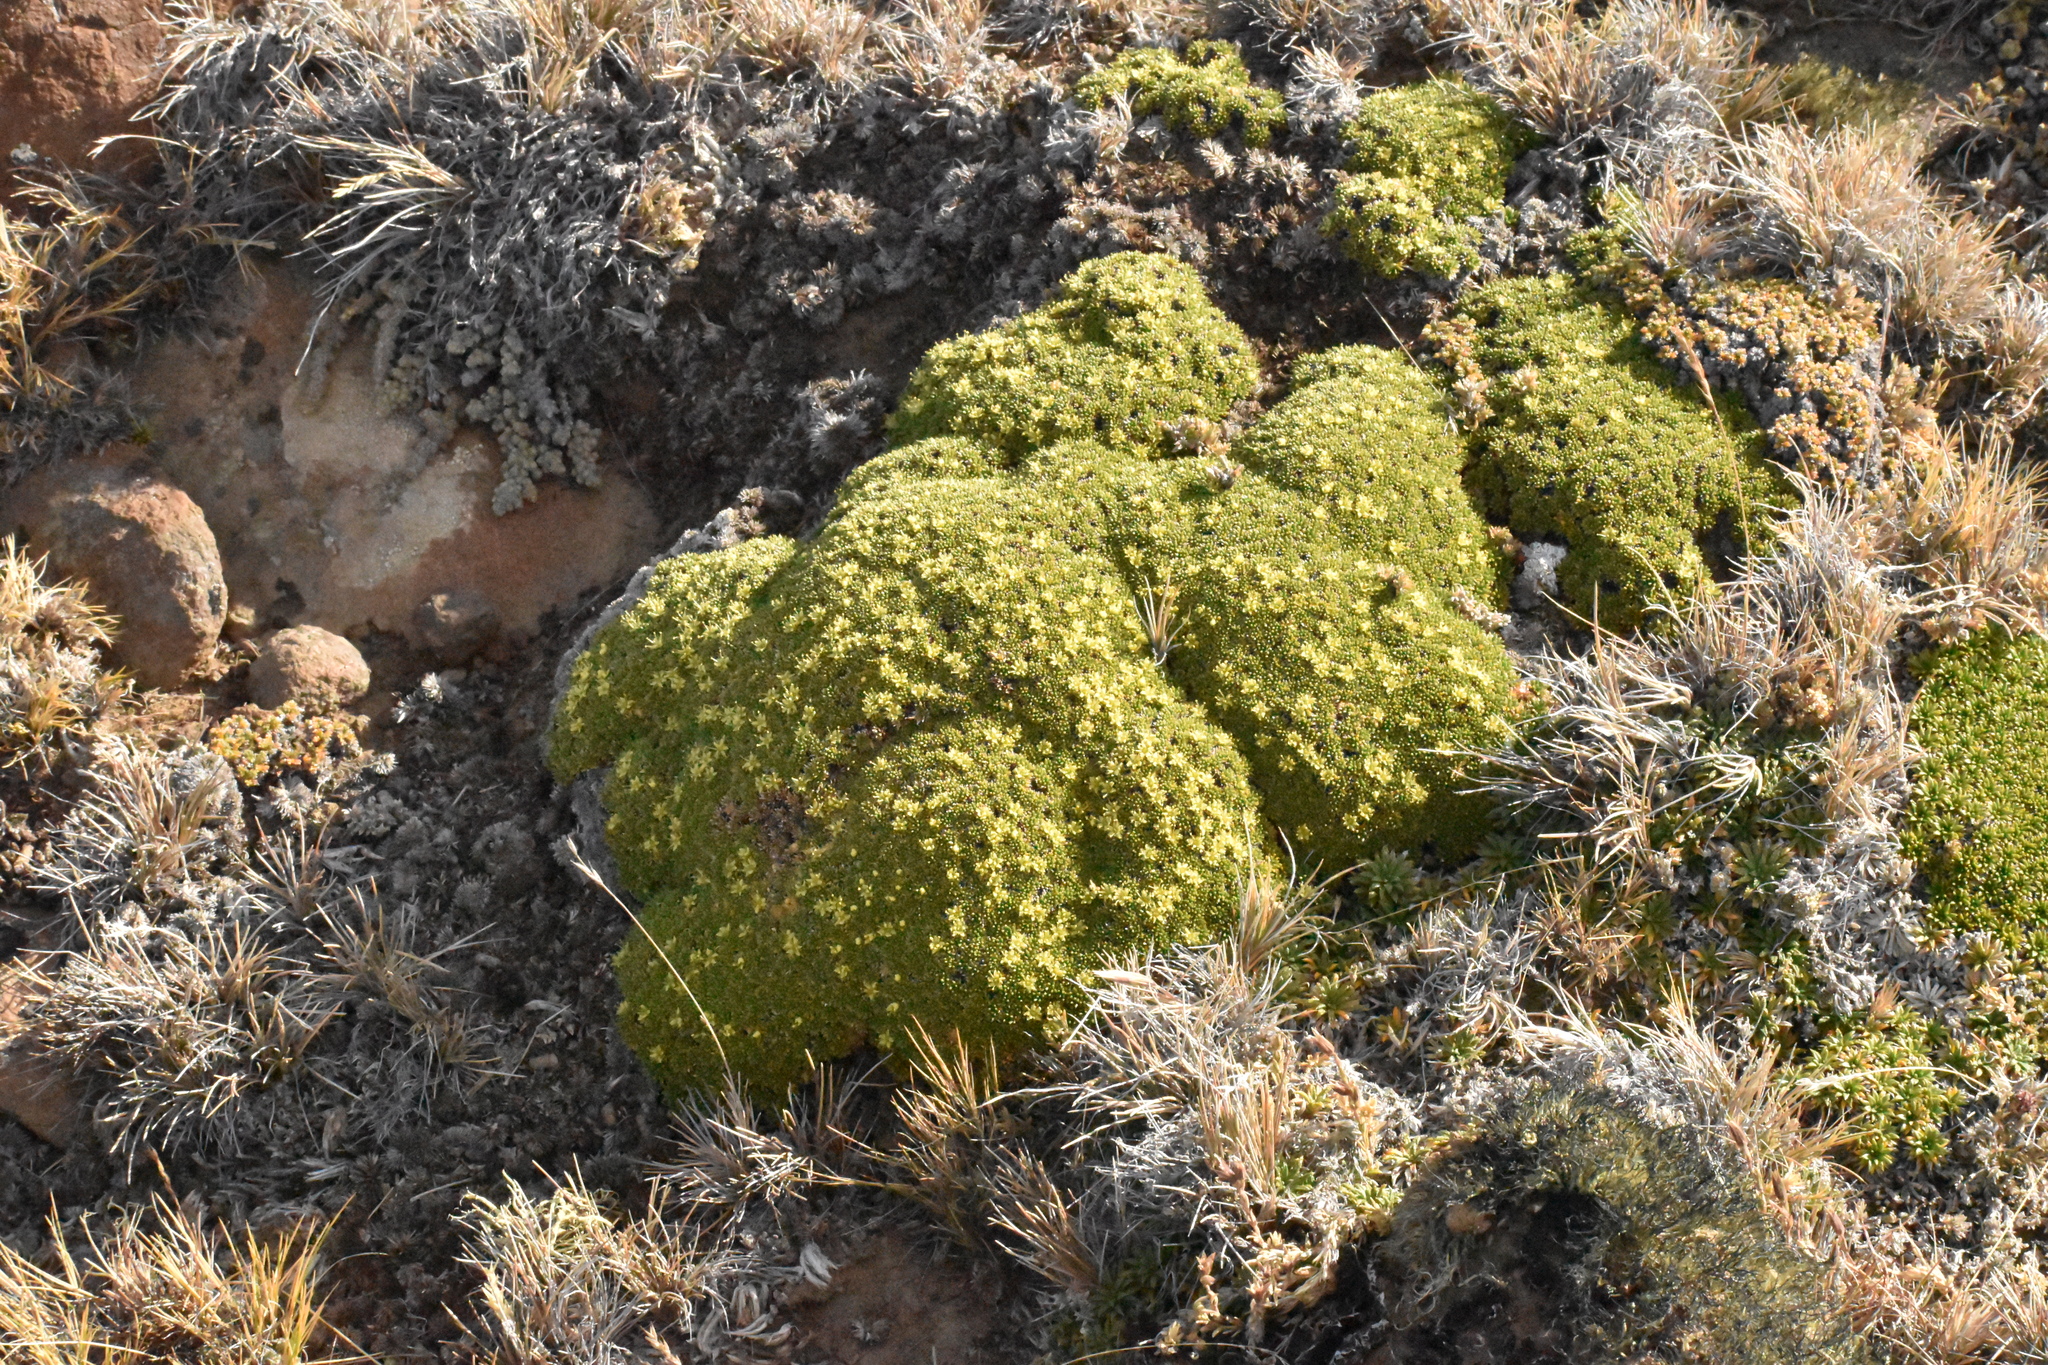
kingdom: Plantae
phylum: Tracheophyta
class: Magnoliopsida
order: Apiales
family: Apiaceae
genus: Azorella
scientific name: Azorella monantha
